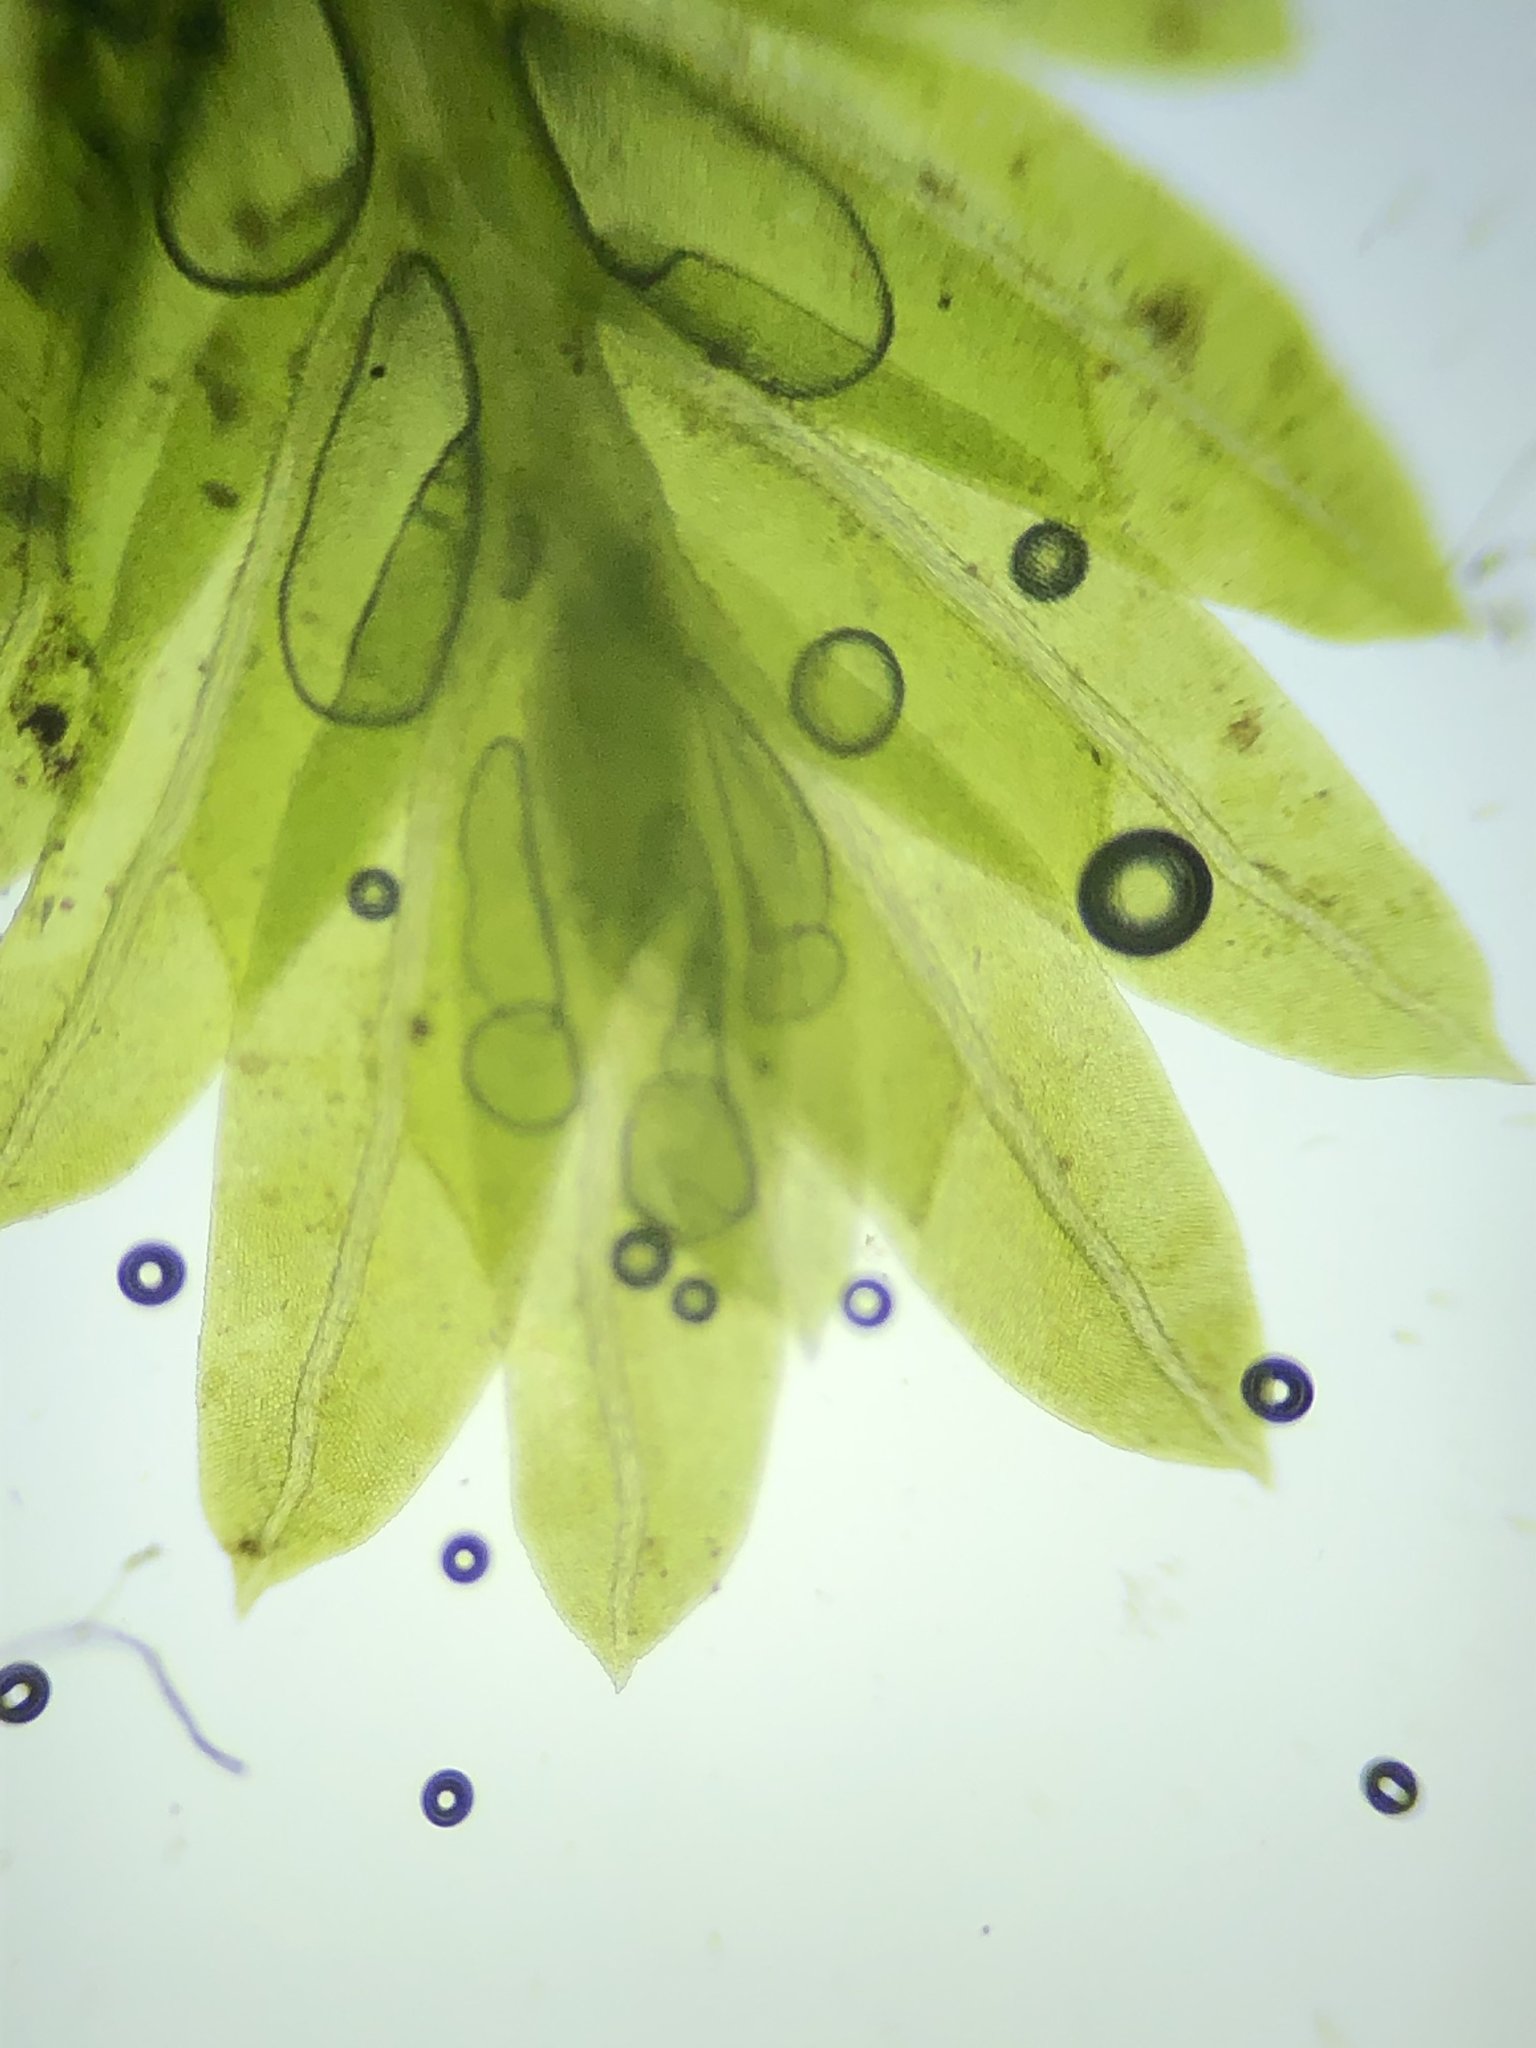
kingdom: Plantae
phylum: Bryophyta
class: Bryopsida
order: Dicranales
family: Fissidentaceae
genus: Fissidens
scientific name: Fissidens taxifolius
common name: Yew-leaved pocket moss
